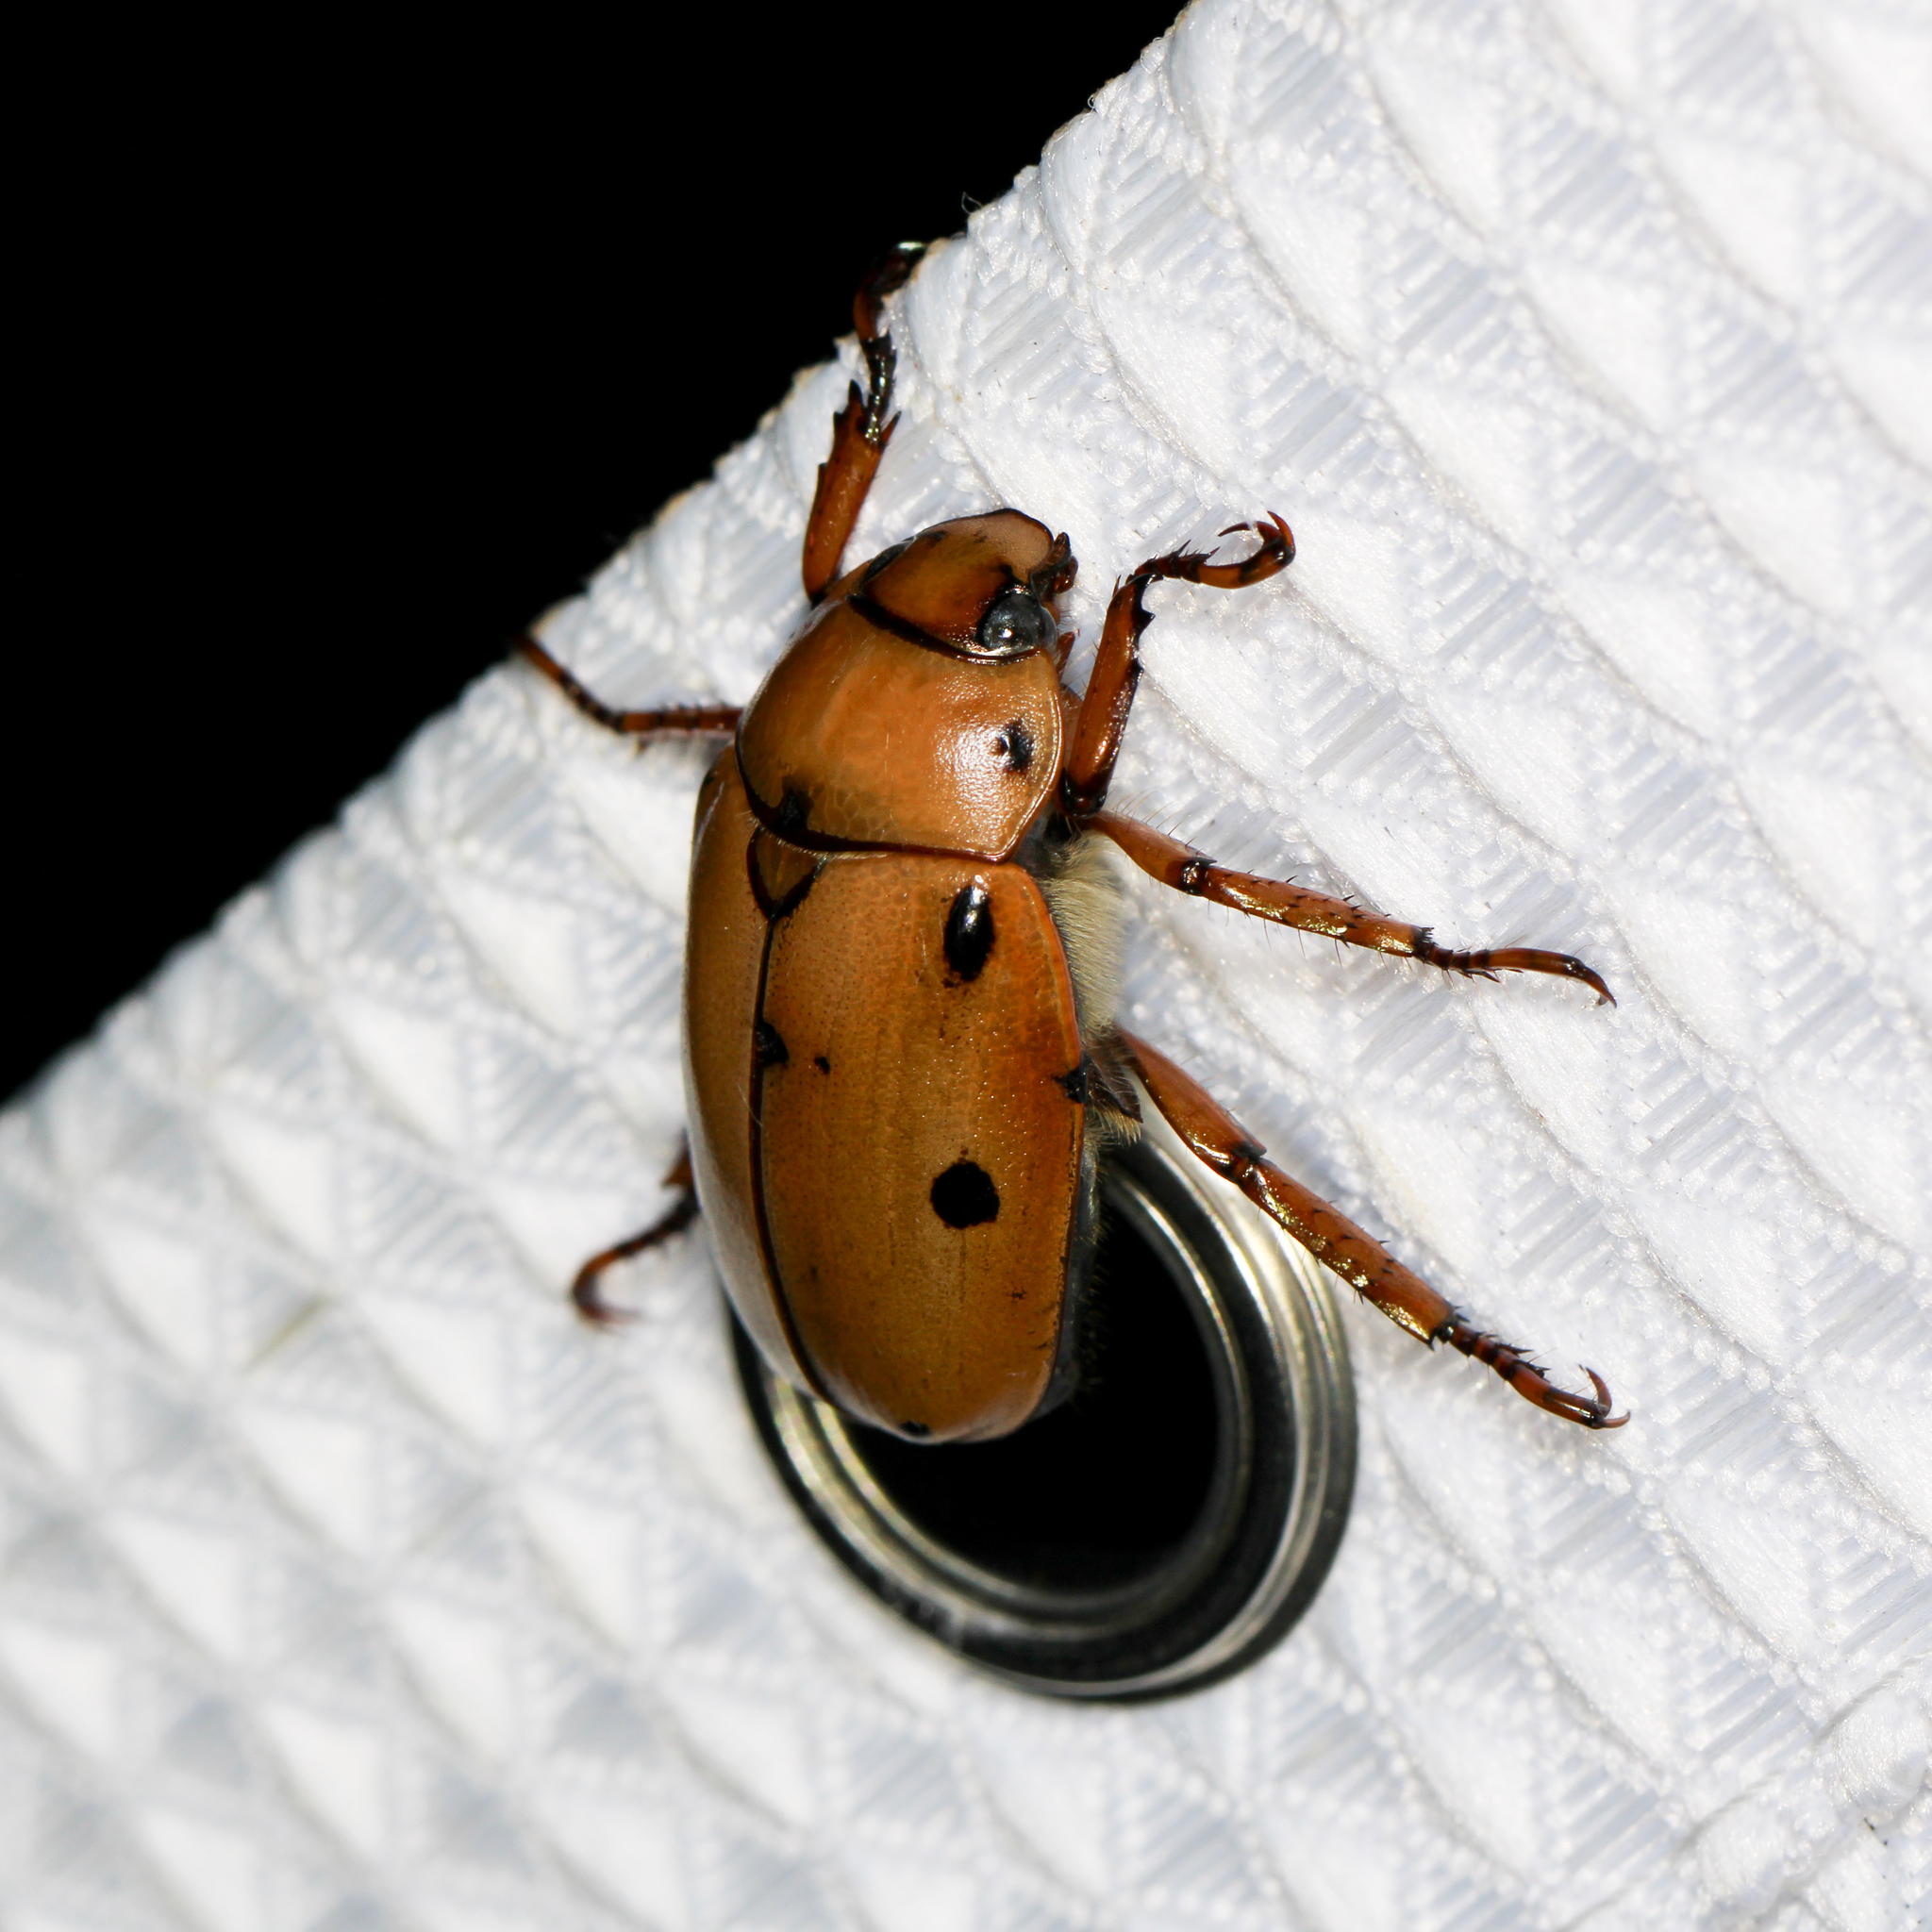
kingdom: Animalia
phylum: Arthropoda
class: Insecta
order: Coleoptera
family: Scarabaeidae
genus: Pelidnota
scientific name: Pelidnota punctata
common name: Grapevine beetle
